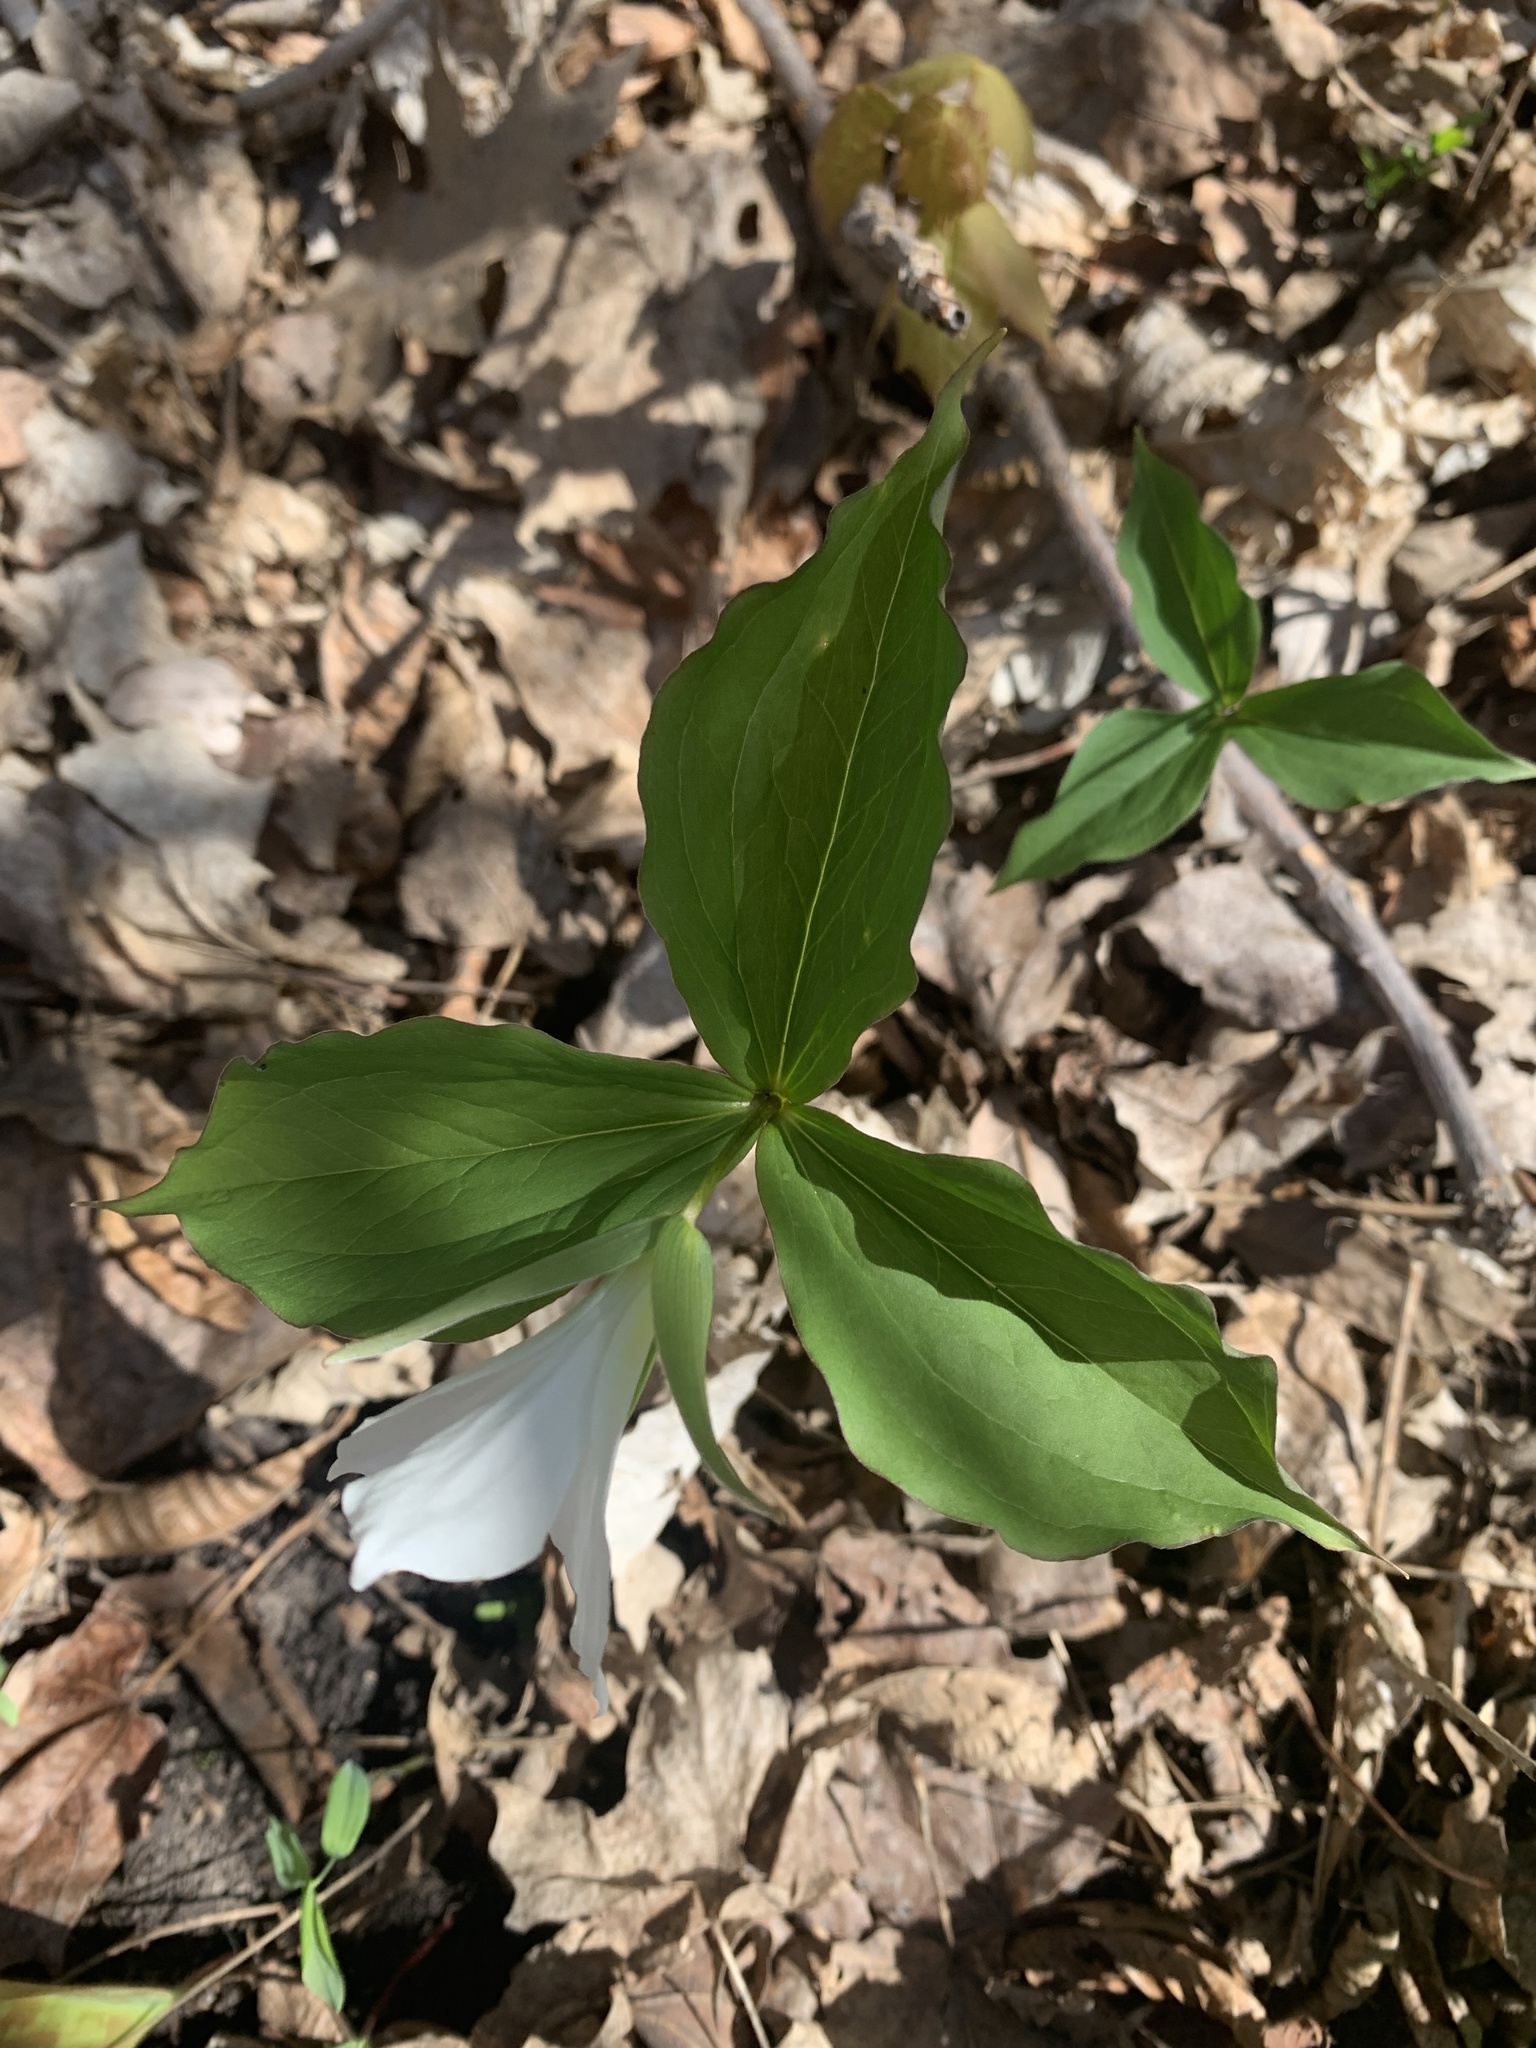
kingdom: Plantae
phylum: Tracheophyta
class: Liliopsida
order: Liliales
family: Melanthiaceae
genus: Trillium
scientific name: Trillium grandiflorum
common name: Great white trillium
